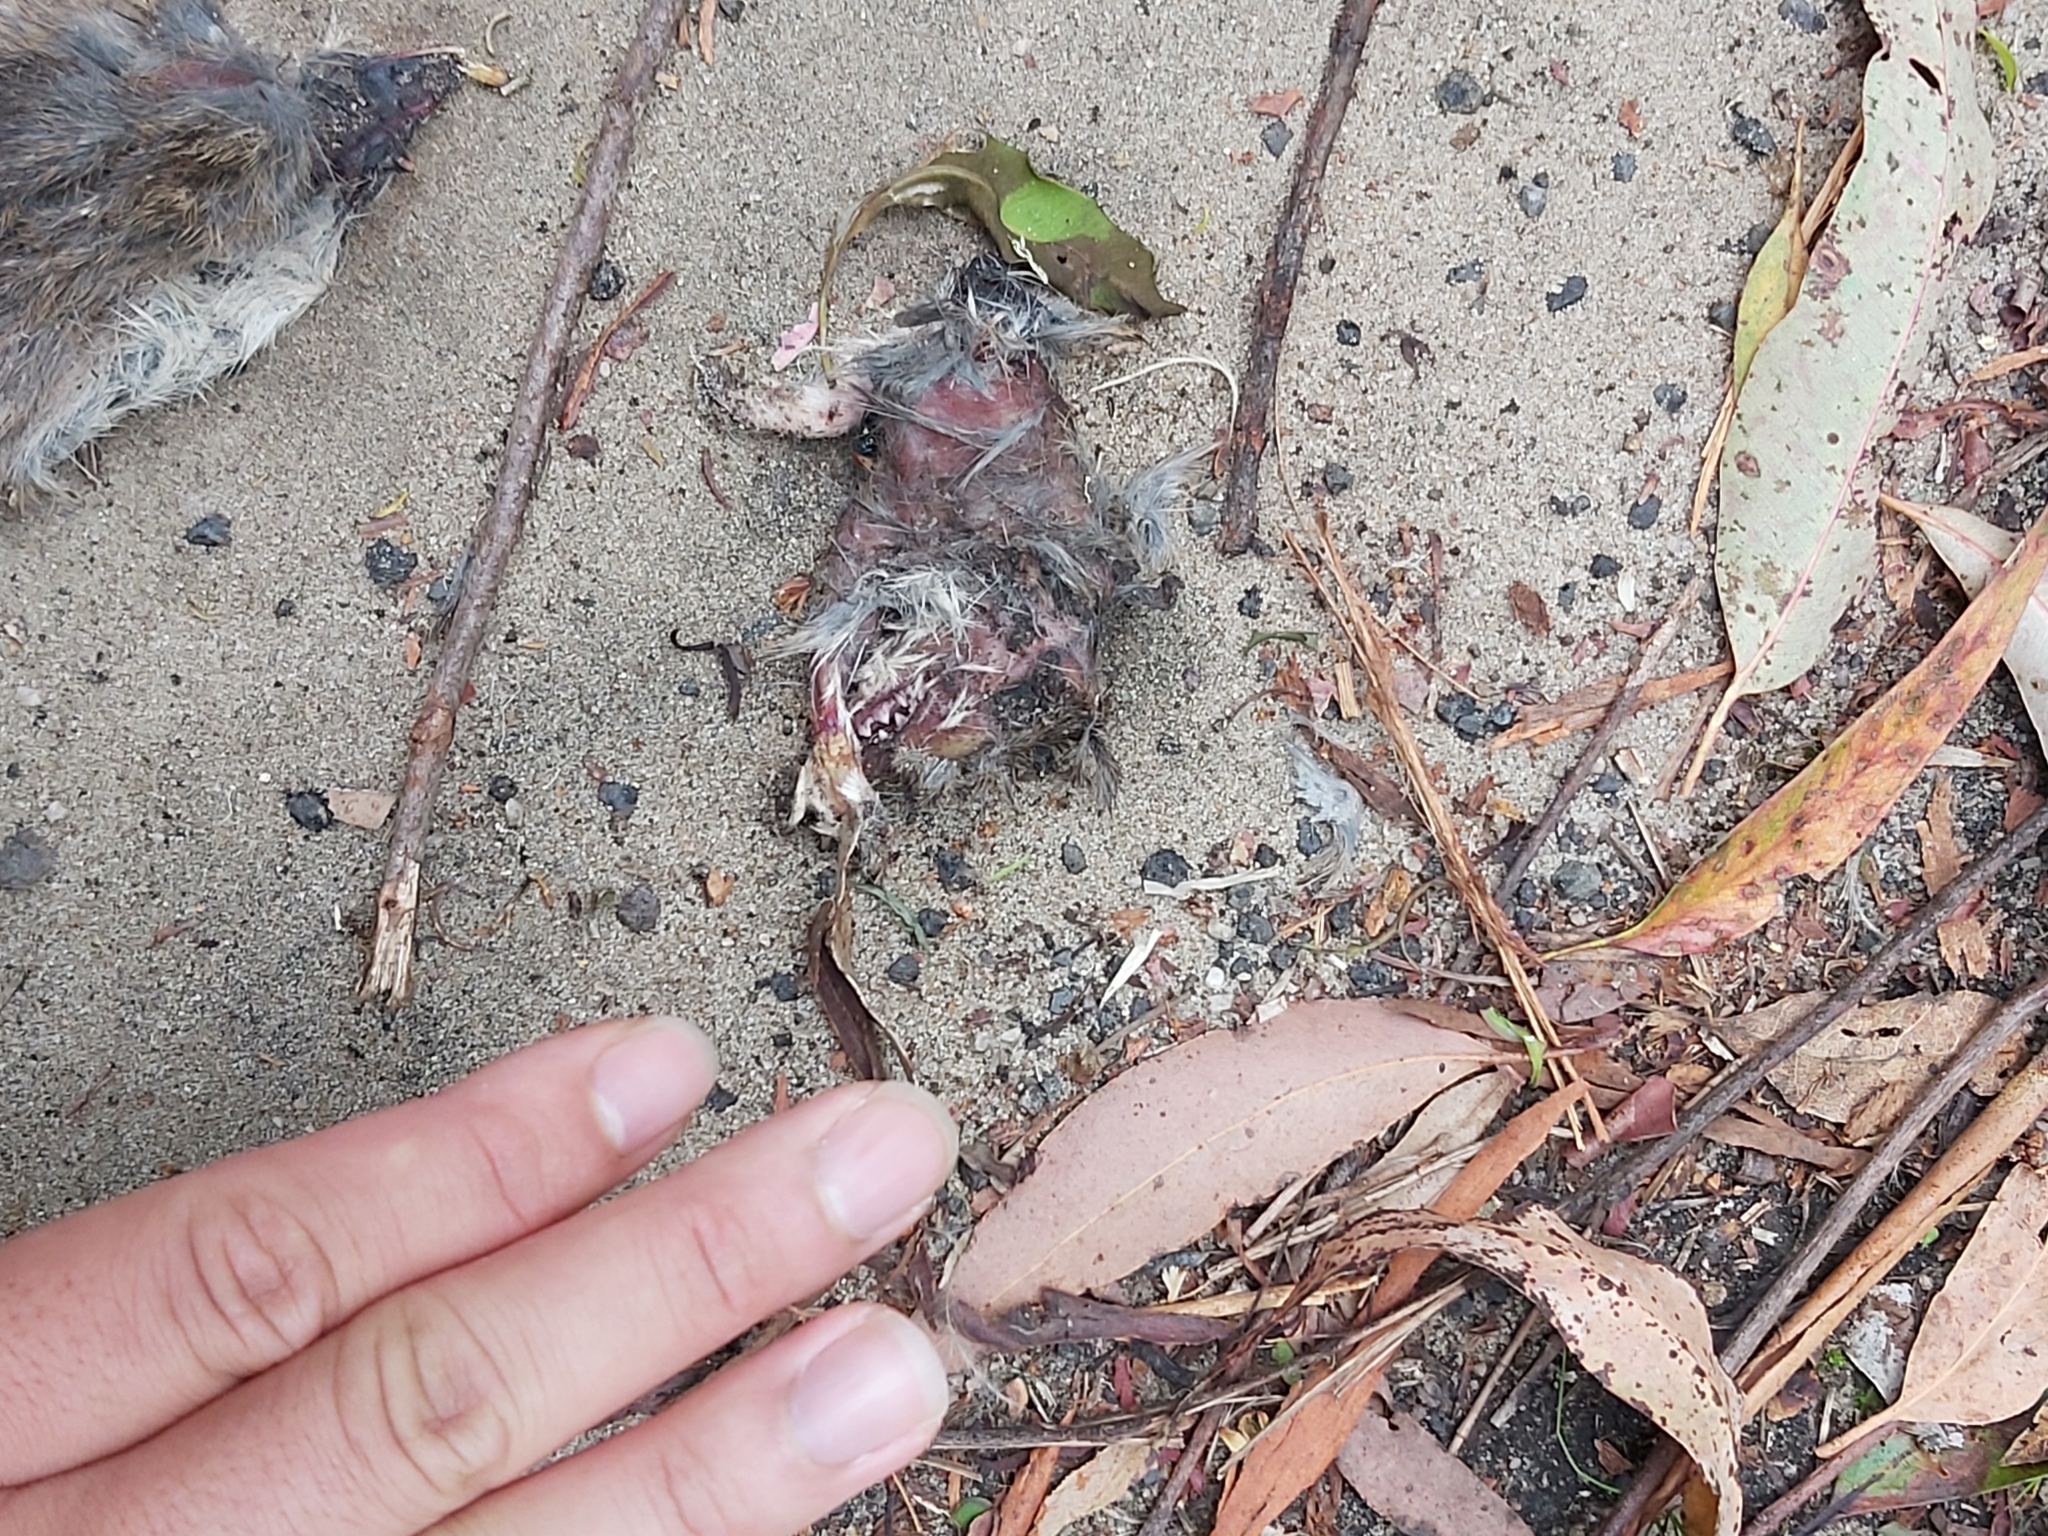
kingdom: Animalia
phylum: Chordata
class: Mammalia
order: Peramelemorphia
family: Peramelidae
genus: Perameles
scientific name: Perameles nasuta
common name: Long-nosed bandicoot
